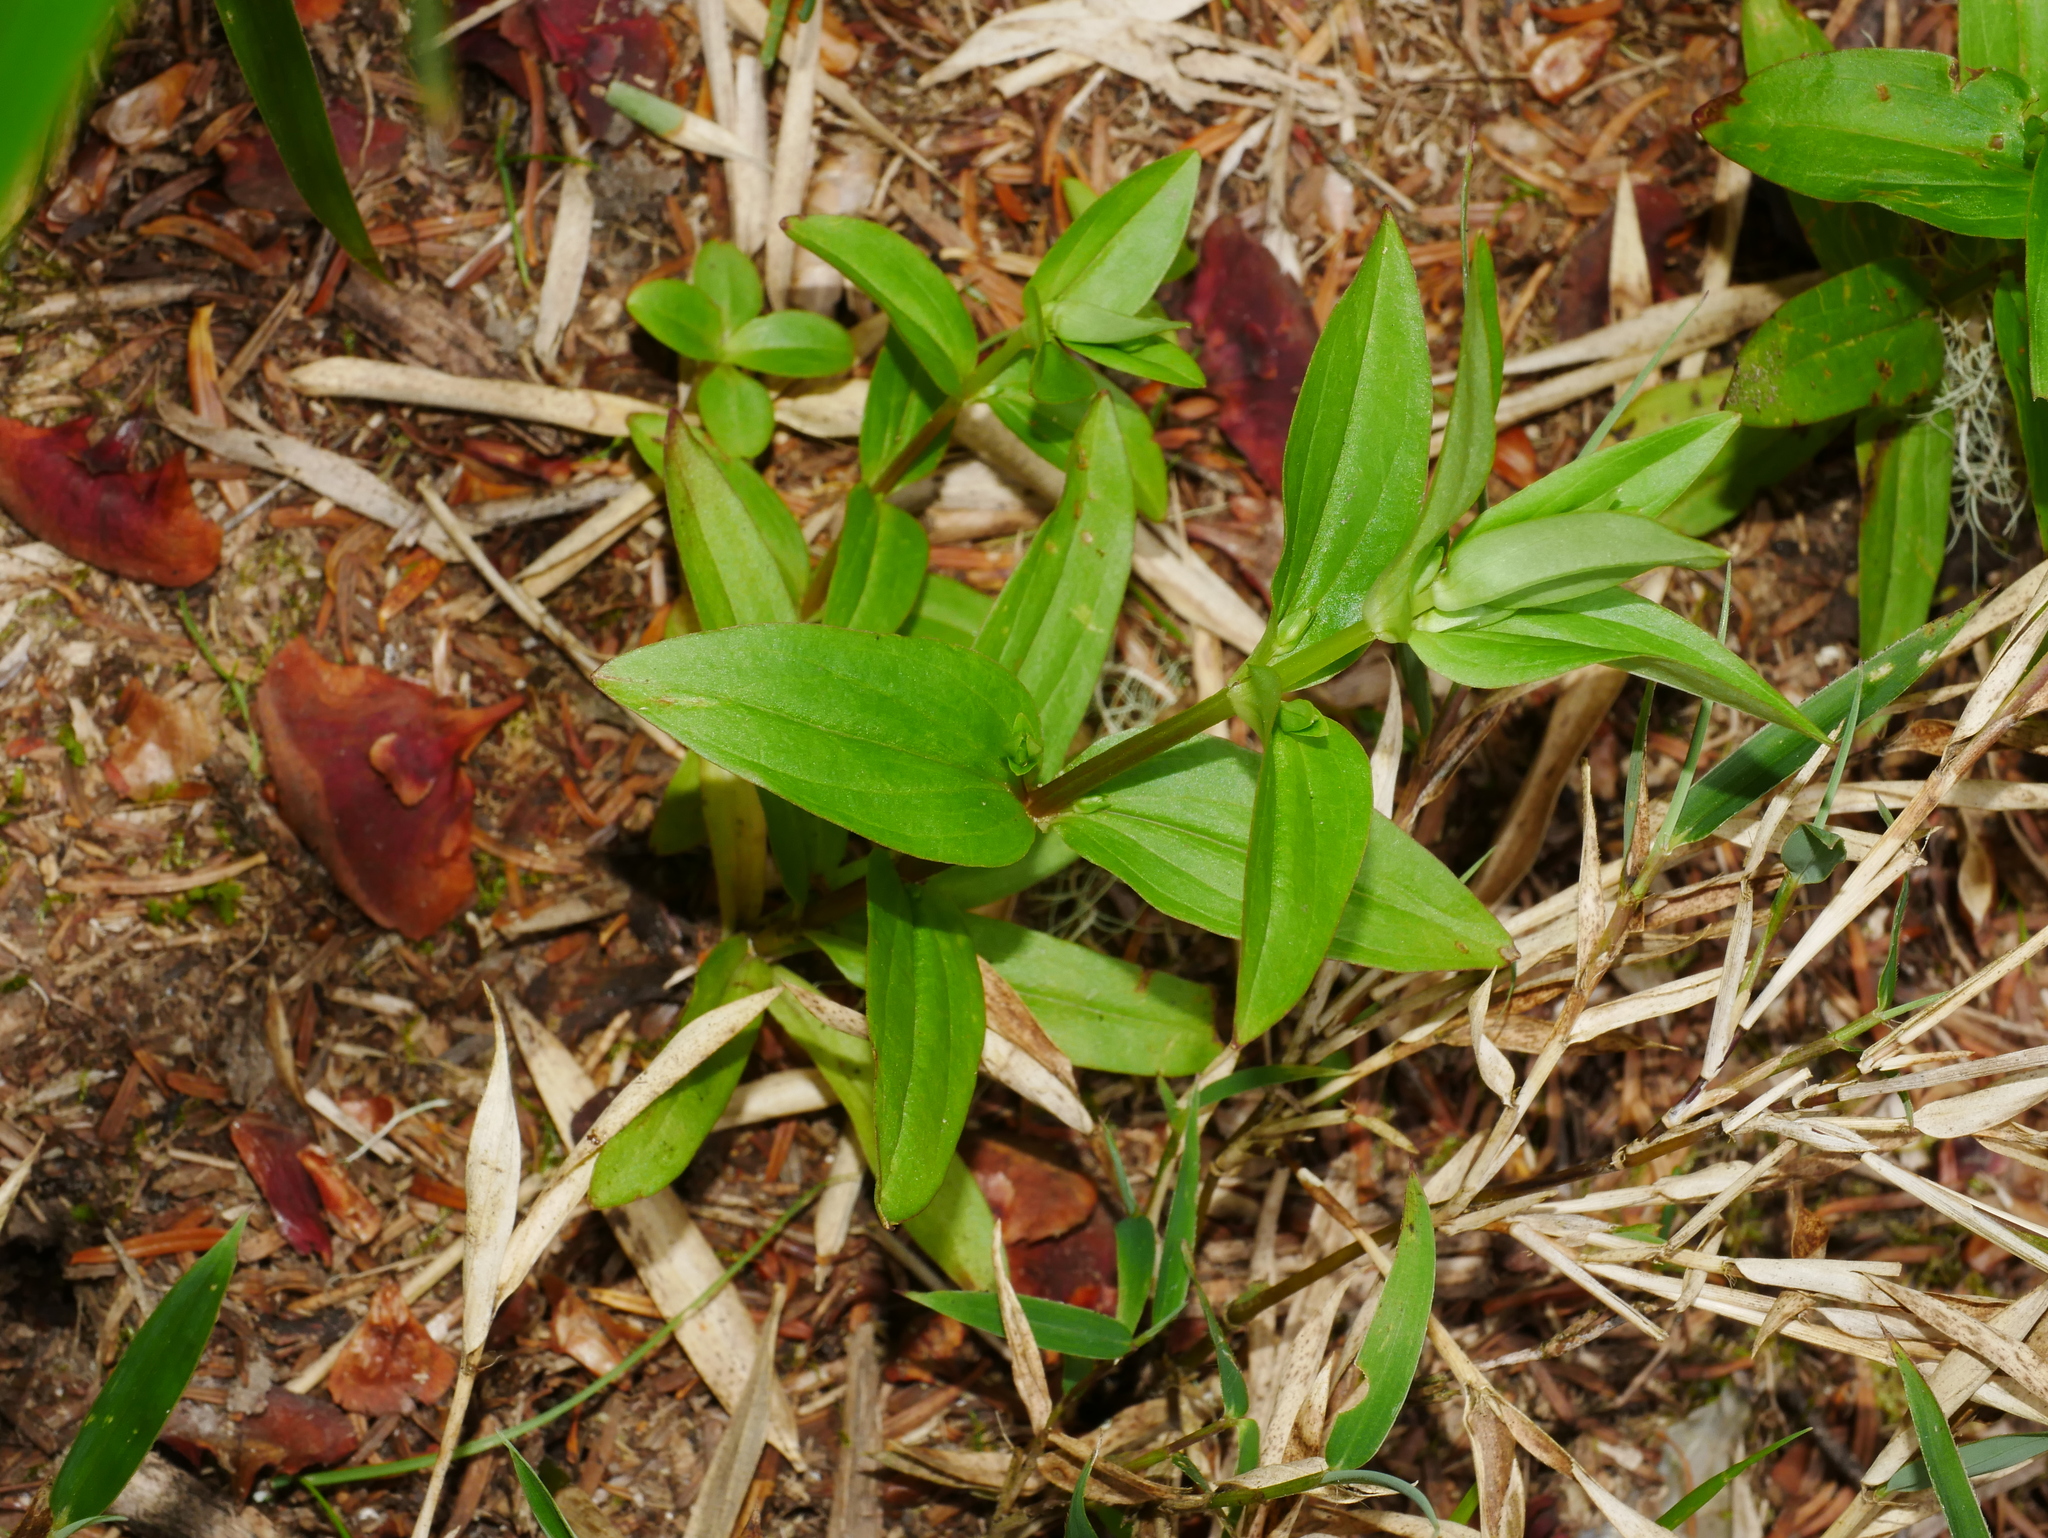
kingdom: Plantae
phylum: Tracheophyta
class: Magnoliopsida
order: Gentianales
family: Gentianaceae
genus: Swertia
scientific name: Swertia macrosperma
